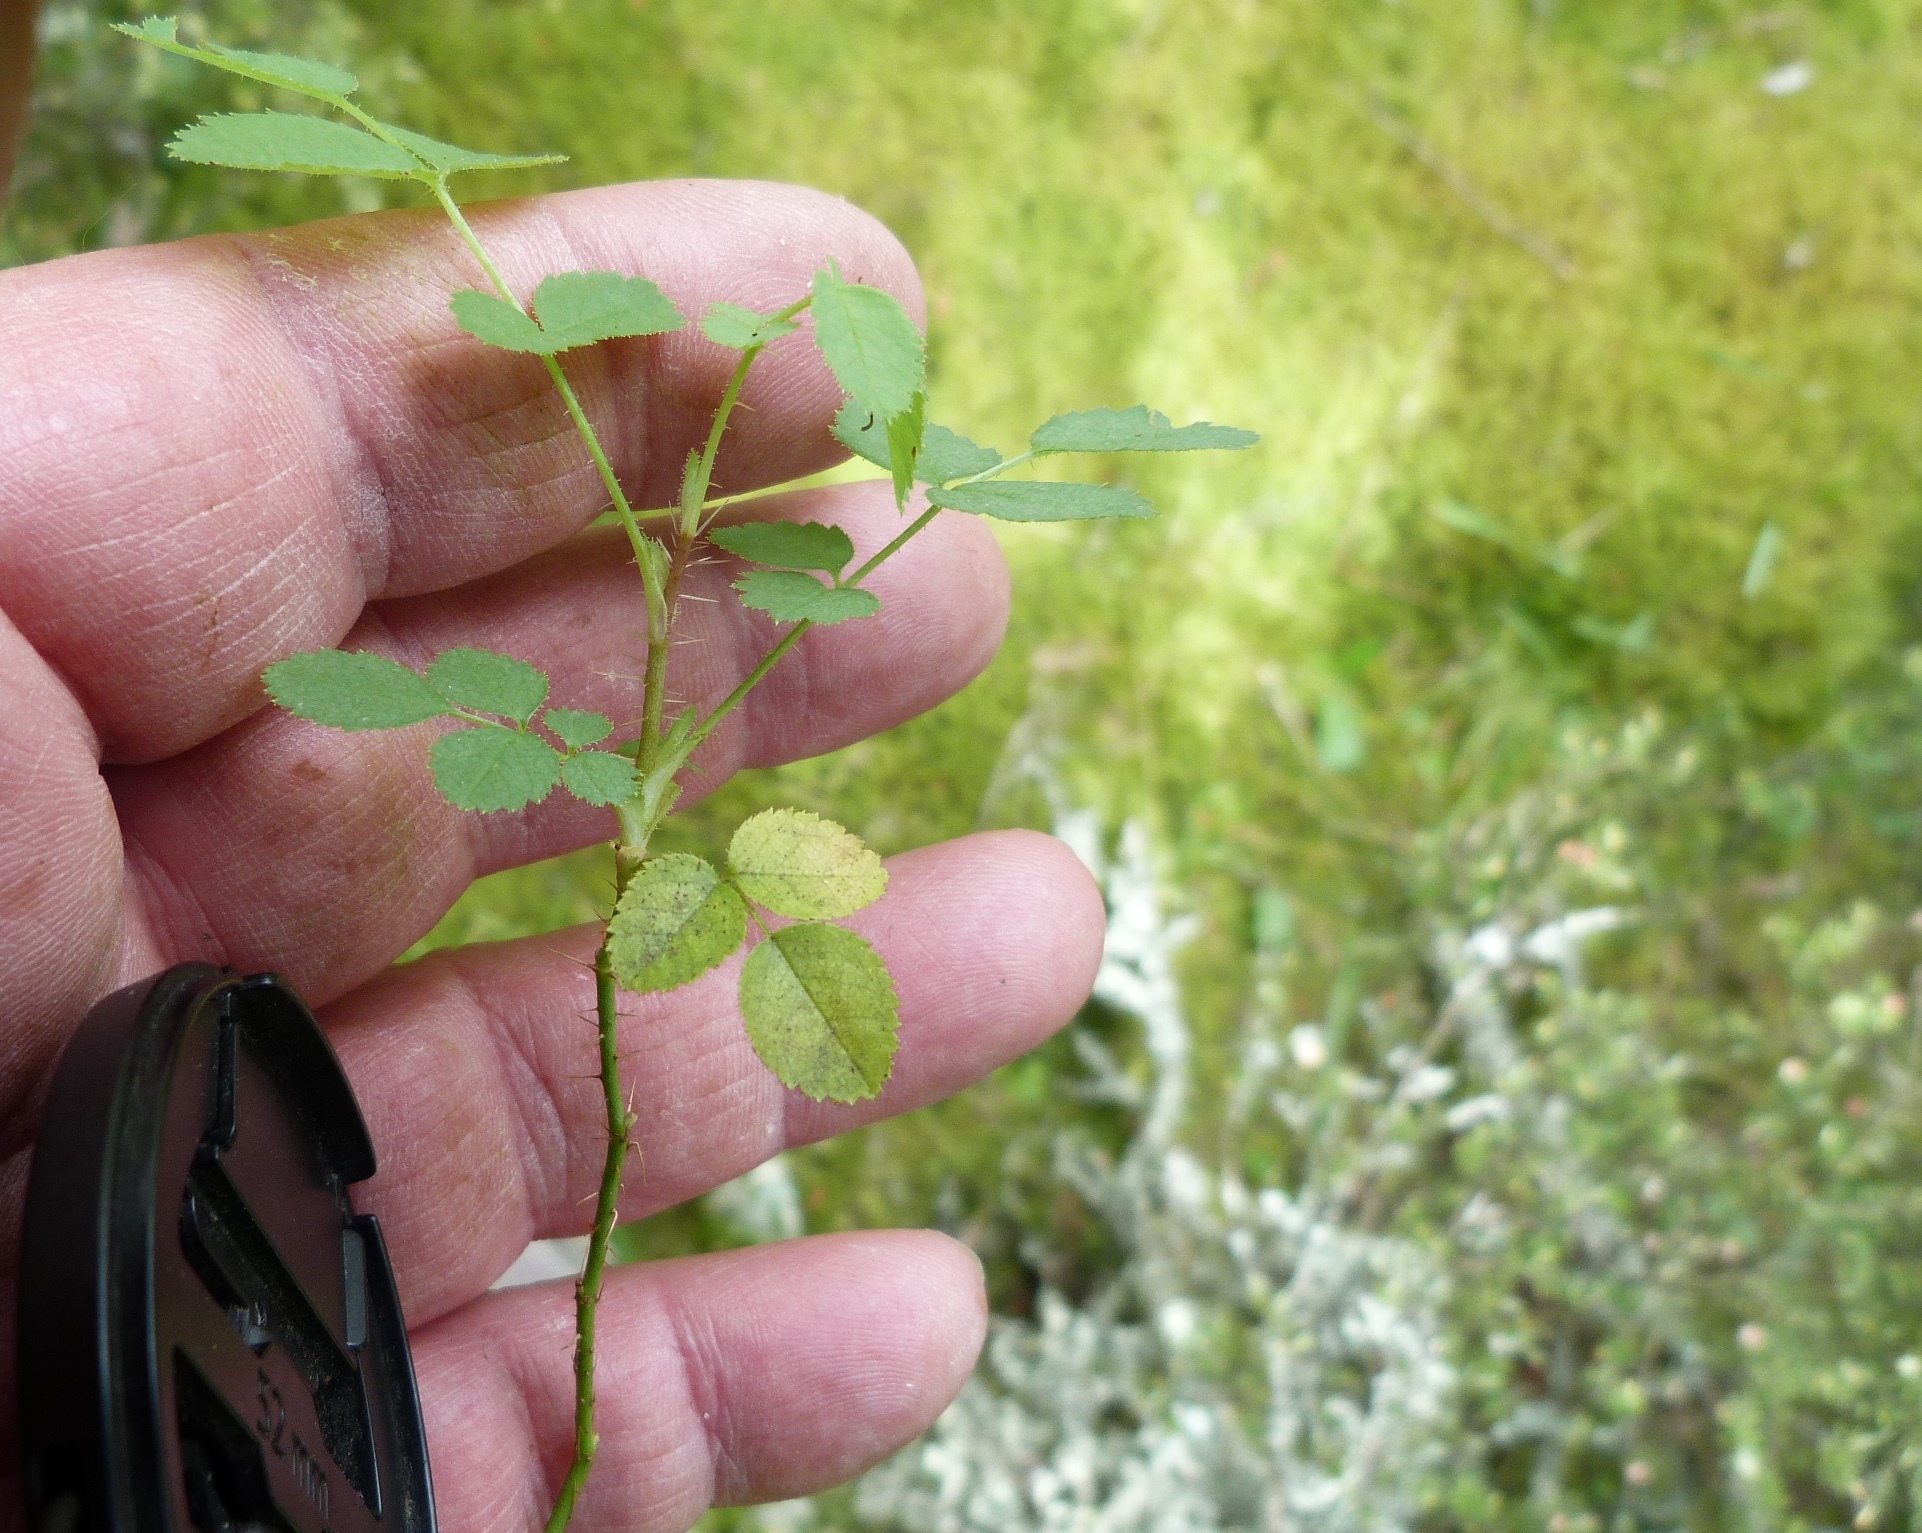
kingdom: Plantae
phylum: Tracheophyta
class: Magnoliopsida
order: Rosales
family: Rosaceae
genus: Rosa
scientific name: Rosa rubiginosa
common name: Sweet-briar
